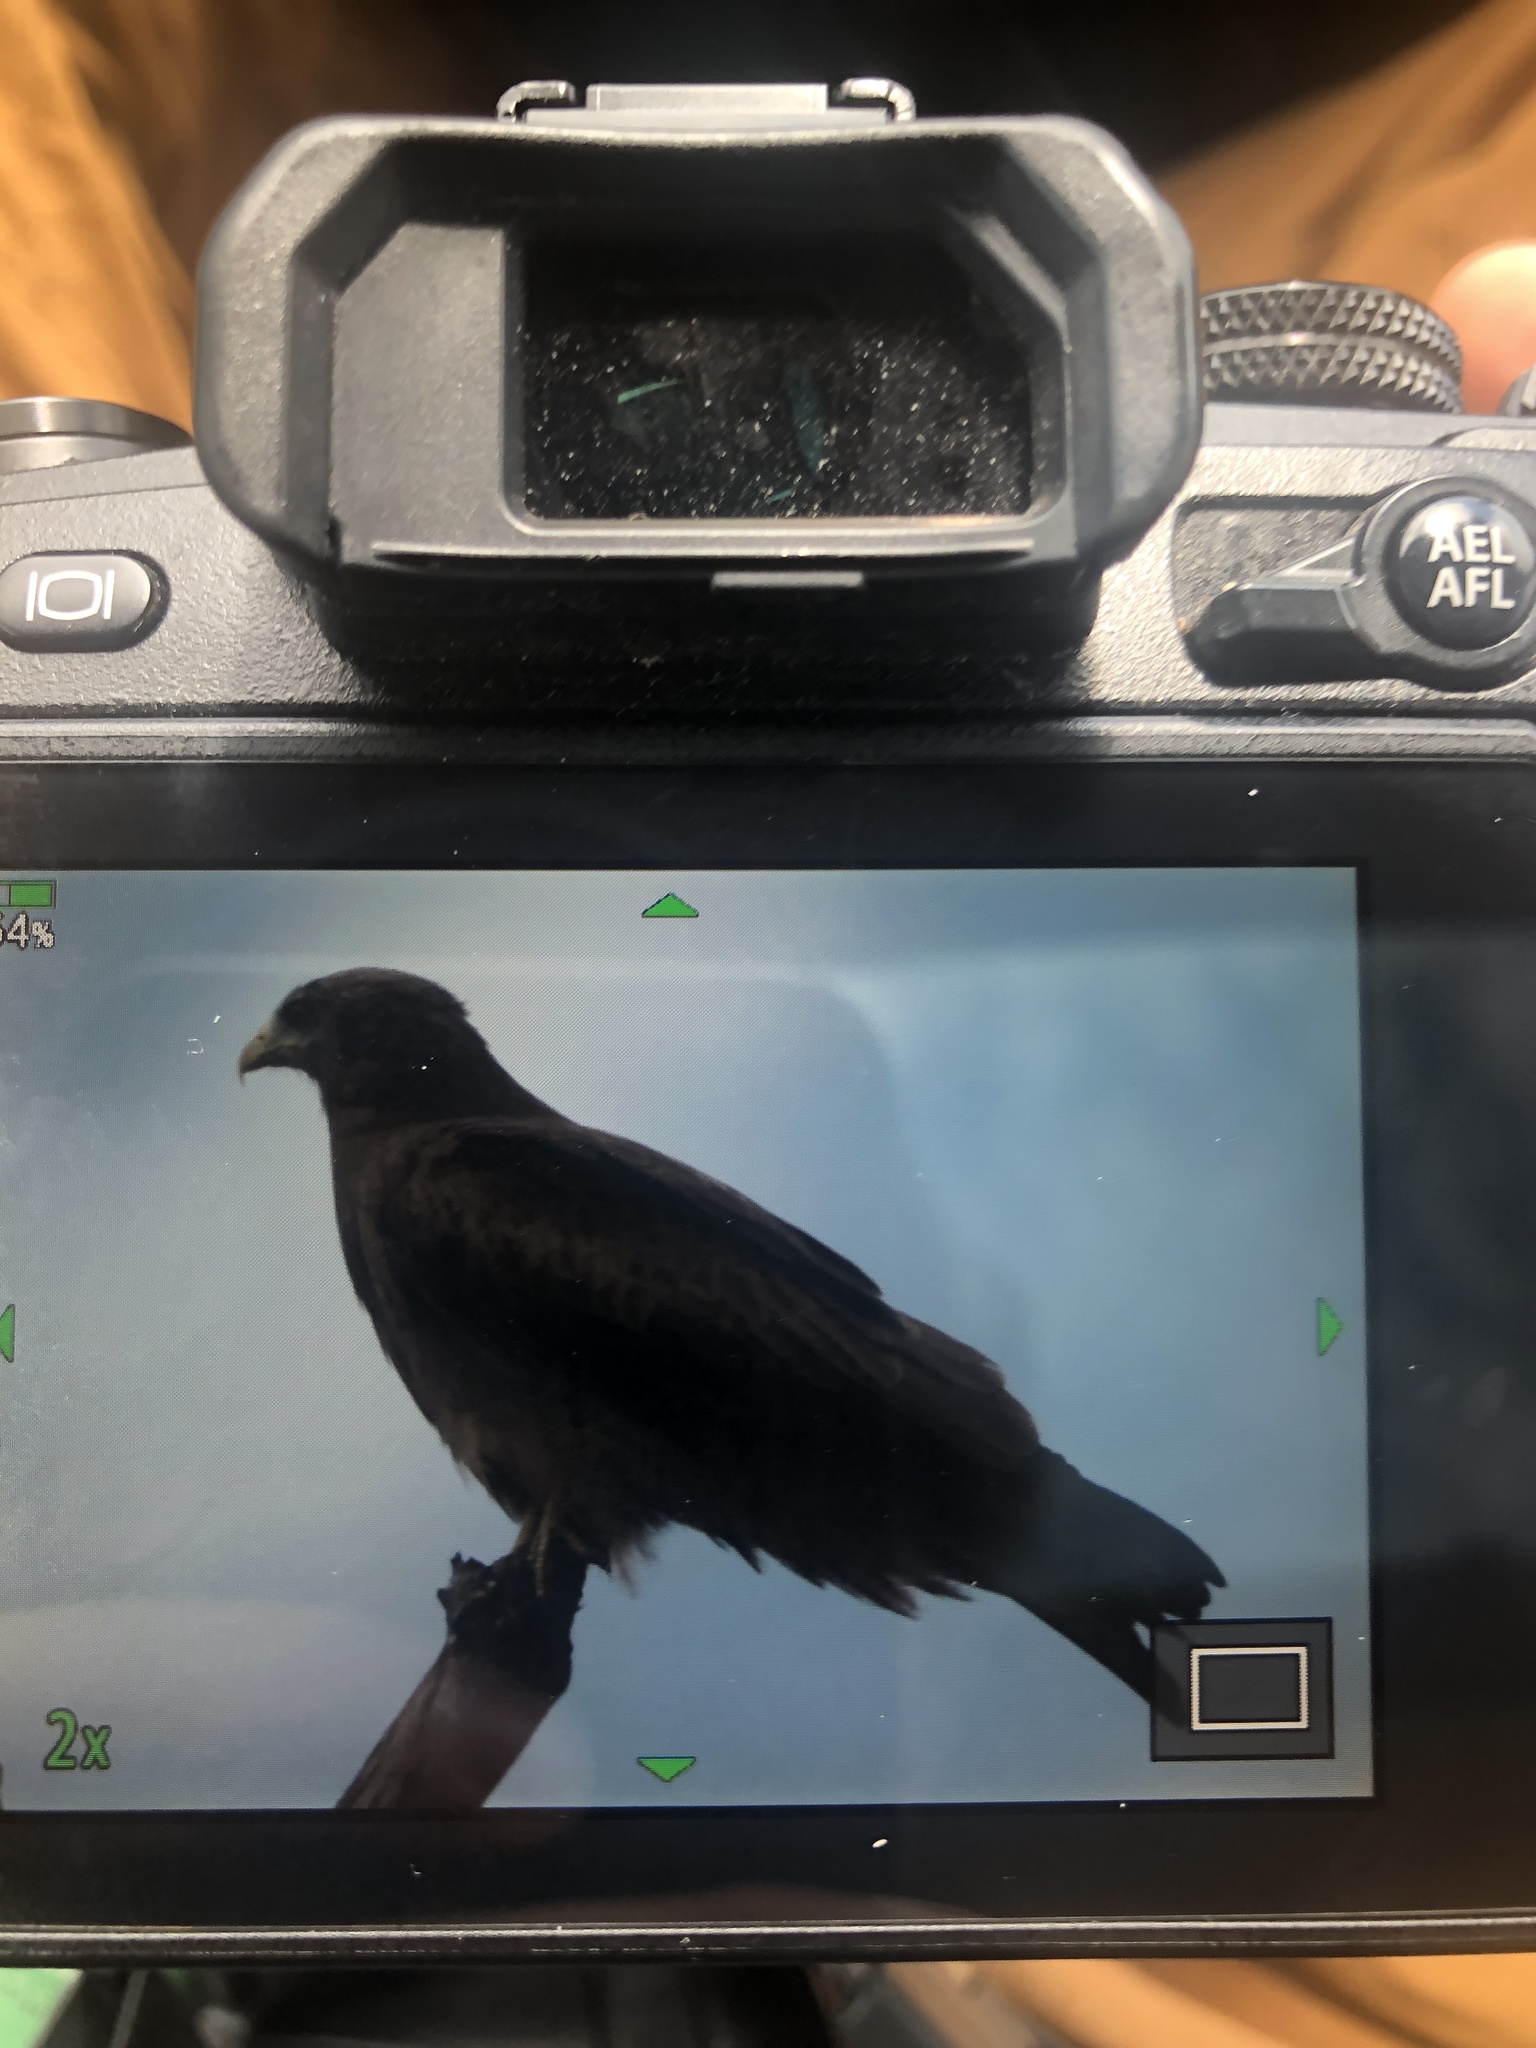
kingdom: Animalia
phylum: Chordata
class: Aves
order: Accipitriformes
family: Accipitridae
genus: Milvus
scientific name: Milvus migrans
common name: Black kite
